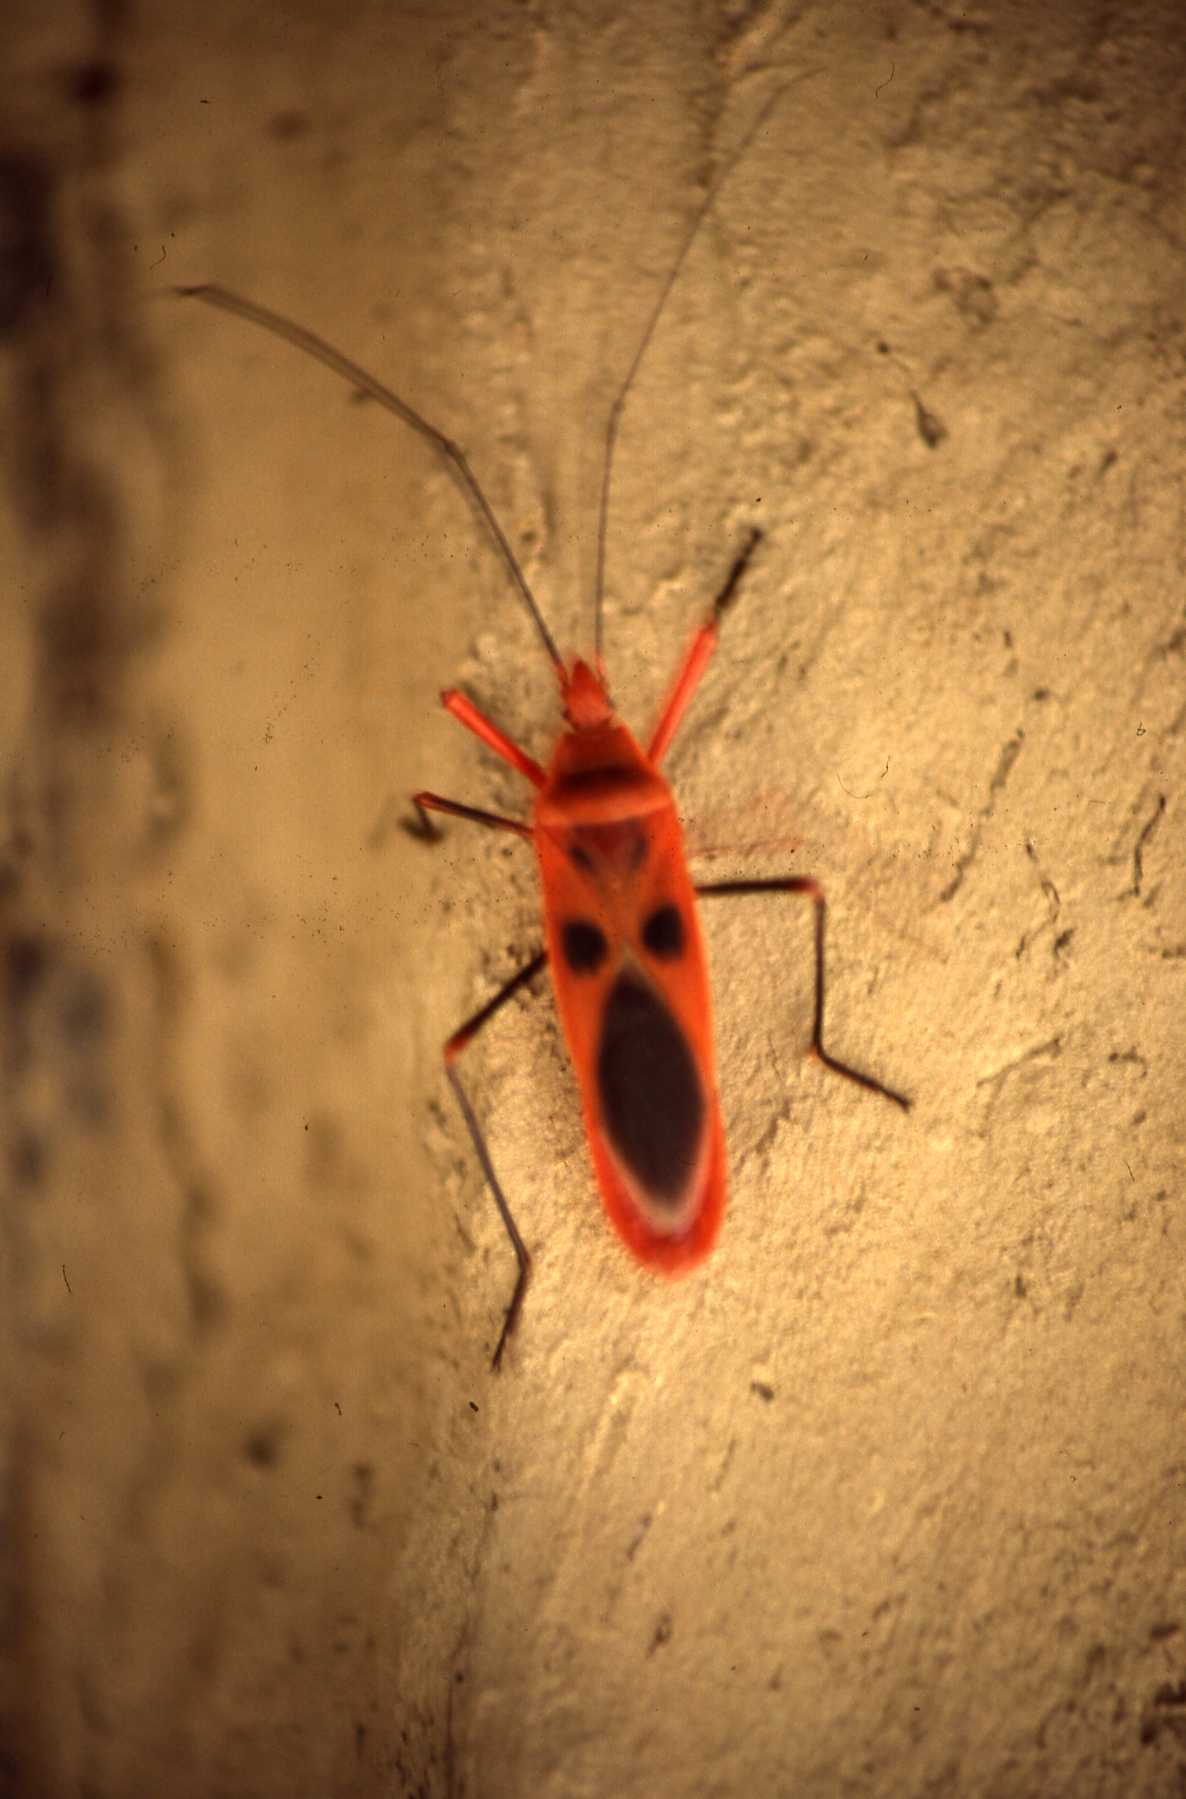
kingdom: Animalia
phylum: Arthropoda
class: Insecta
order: Hemiptera
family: Largidae
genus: Macrocheraia
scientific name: Macrocheraia grandis
